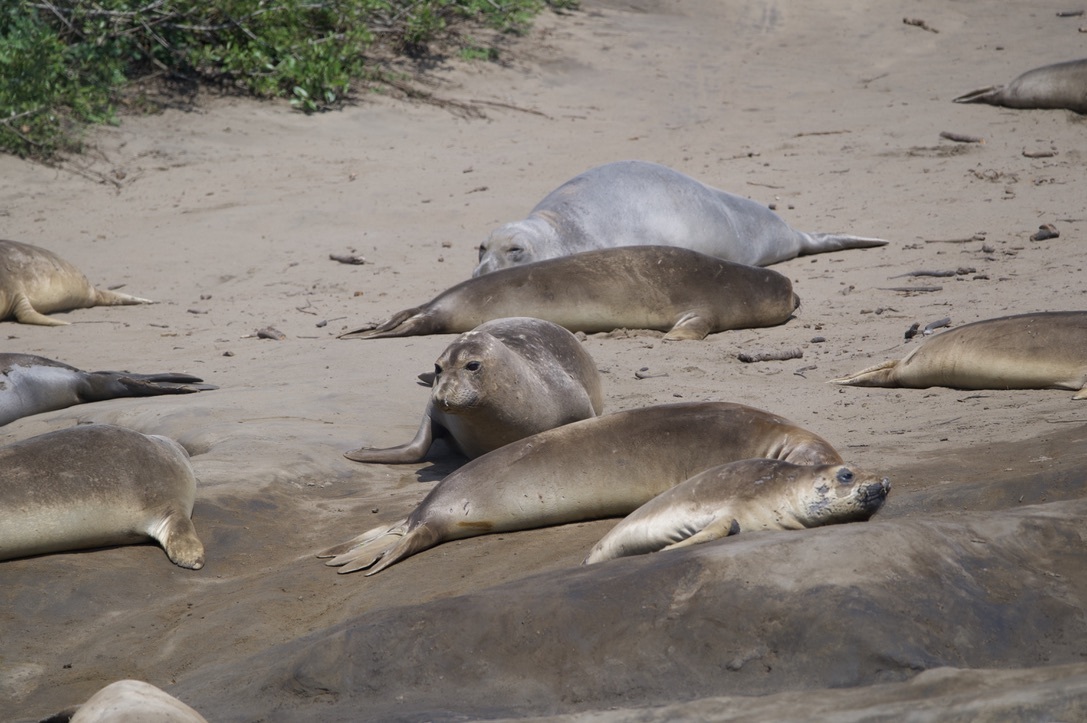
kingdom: Animalia
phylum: Chordata
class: Mammalia
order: Carnivora
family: Phocidae
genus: Mirounga
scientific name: Mirounga angustirostris
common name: Northern elephant seal
